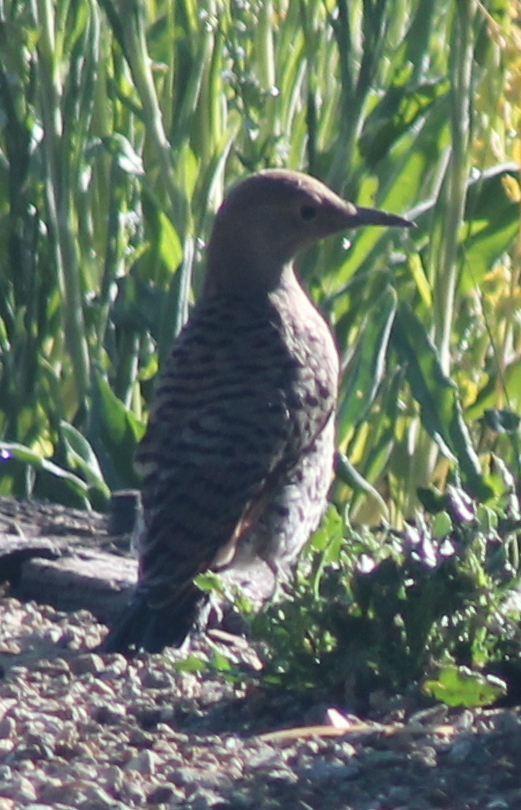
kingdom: Animalia
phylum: Chordata
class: Aves
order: Piciformes
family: Picidae
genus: Colaptes
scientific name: Colaptes auratus
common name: Northern flicker
